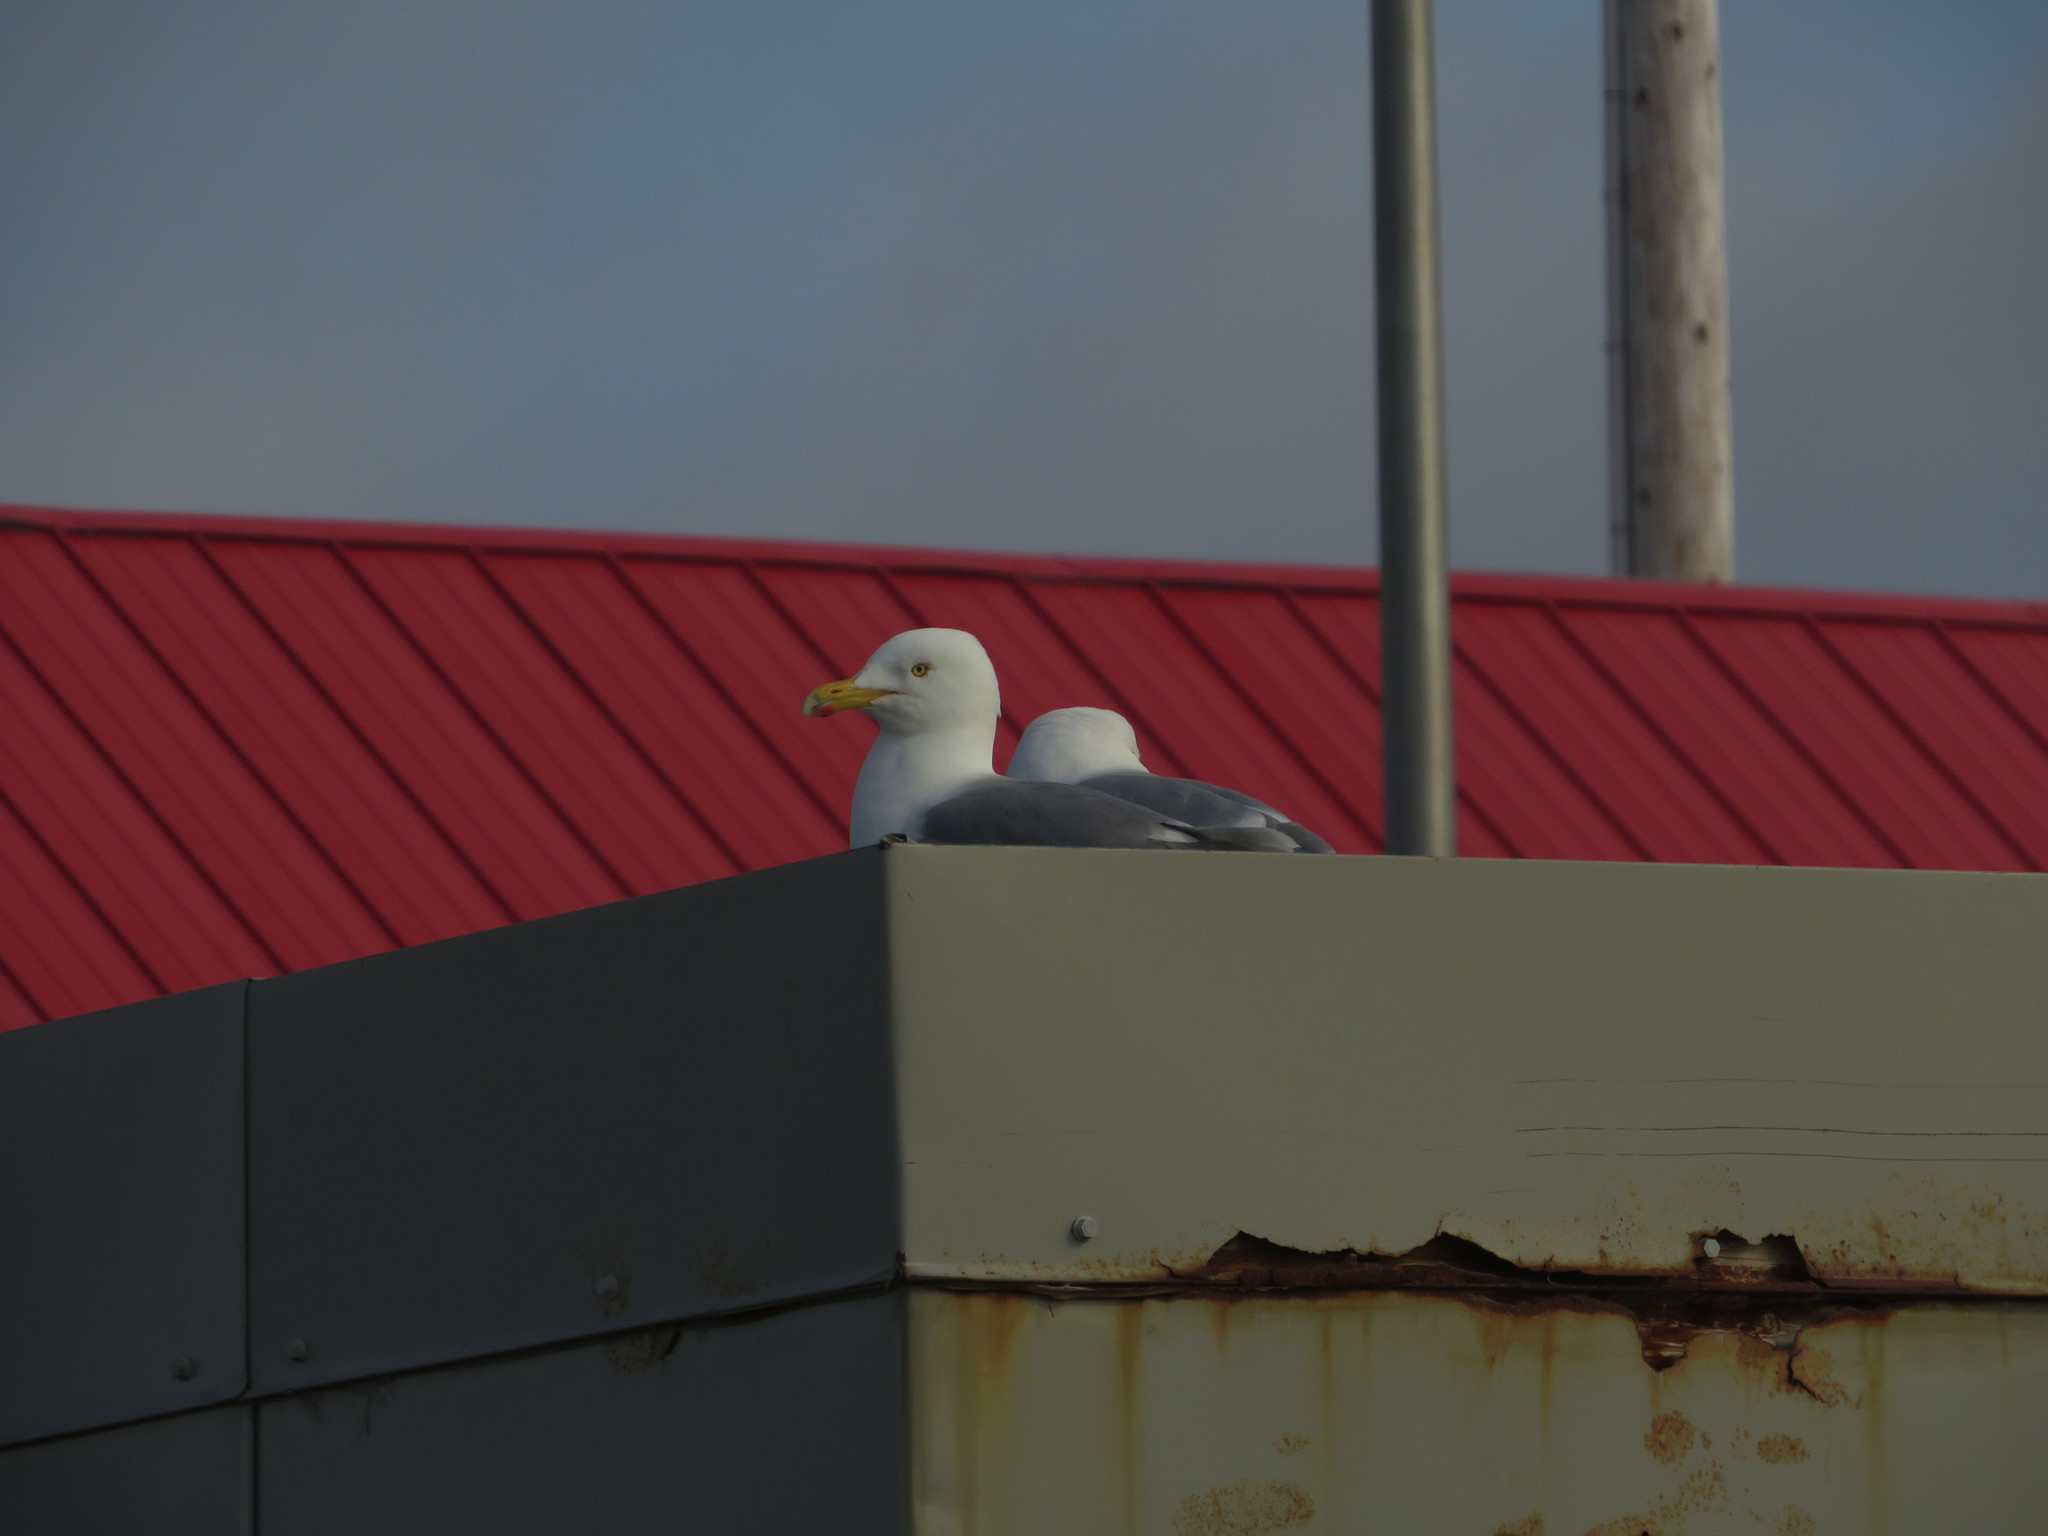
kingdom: Animalia
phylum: Chordata
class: Aves
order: Charadriiformes
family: Laridae
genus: Larus
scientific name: Larus argentatus
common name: Herring gull
